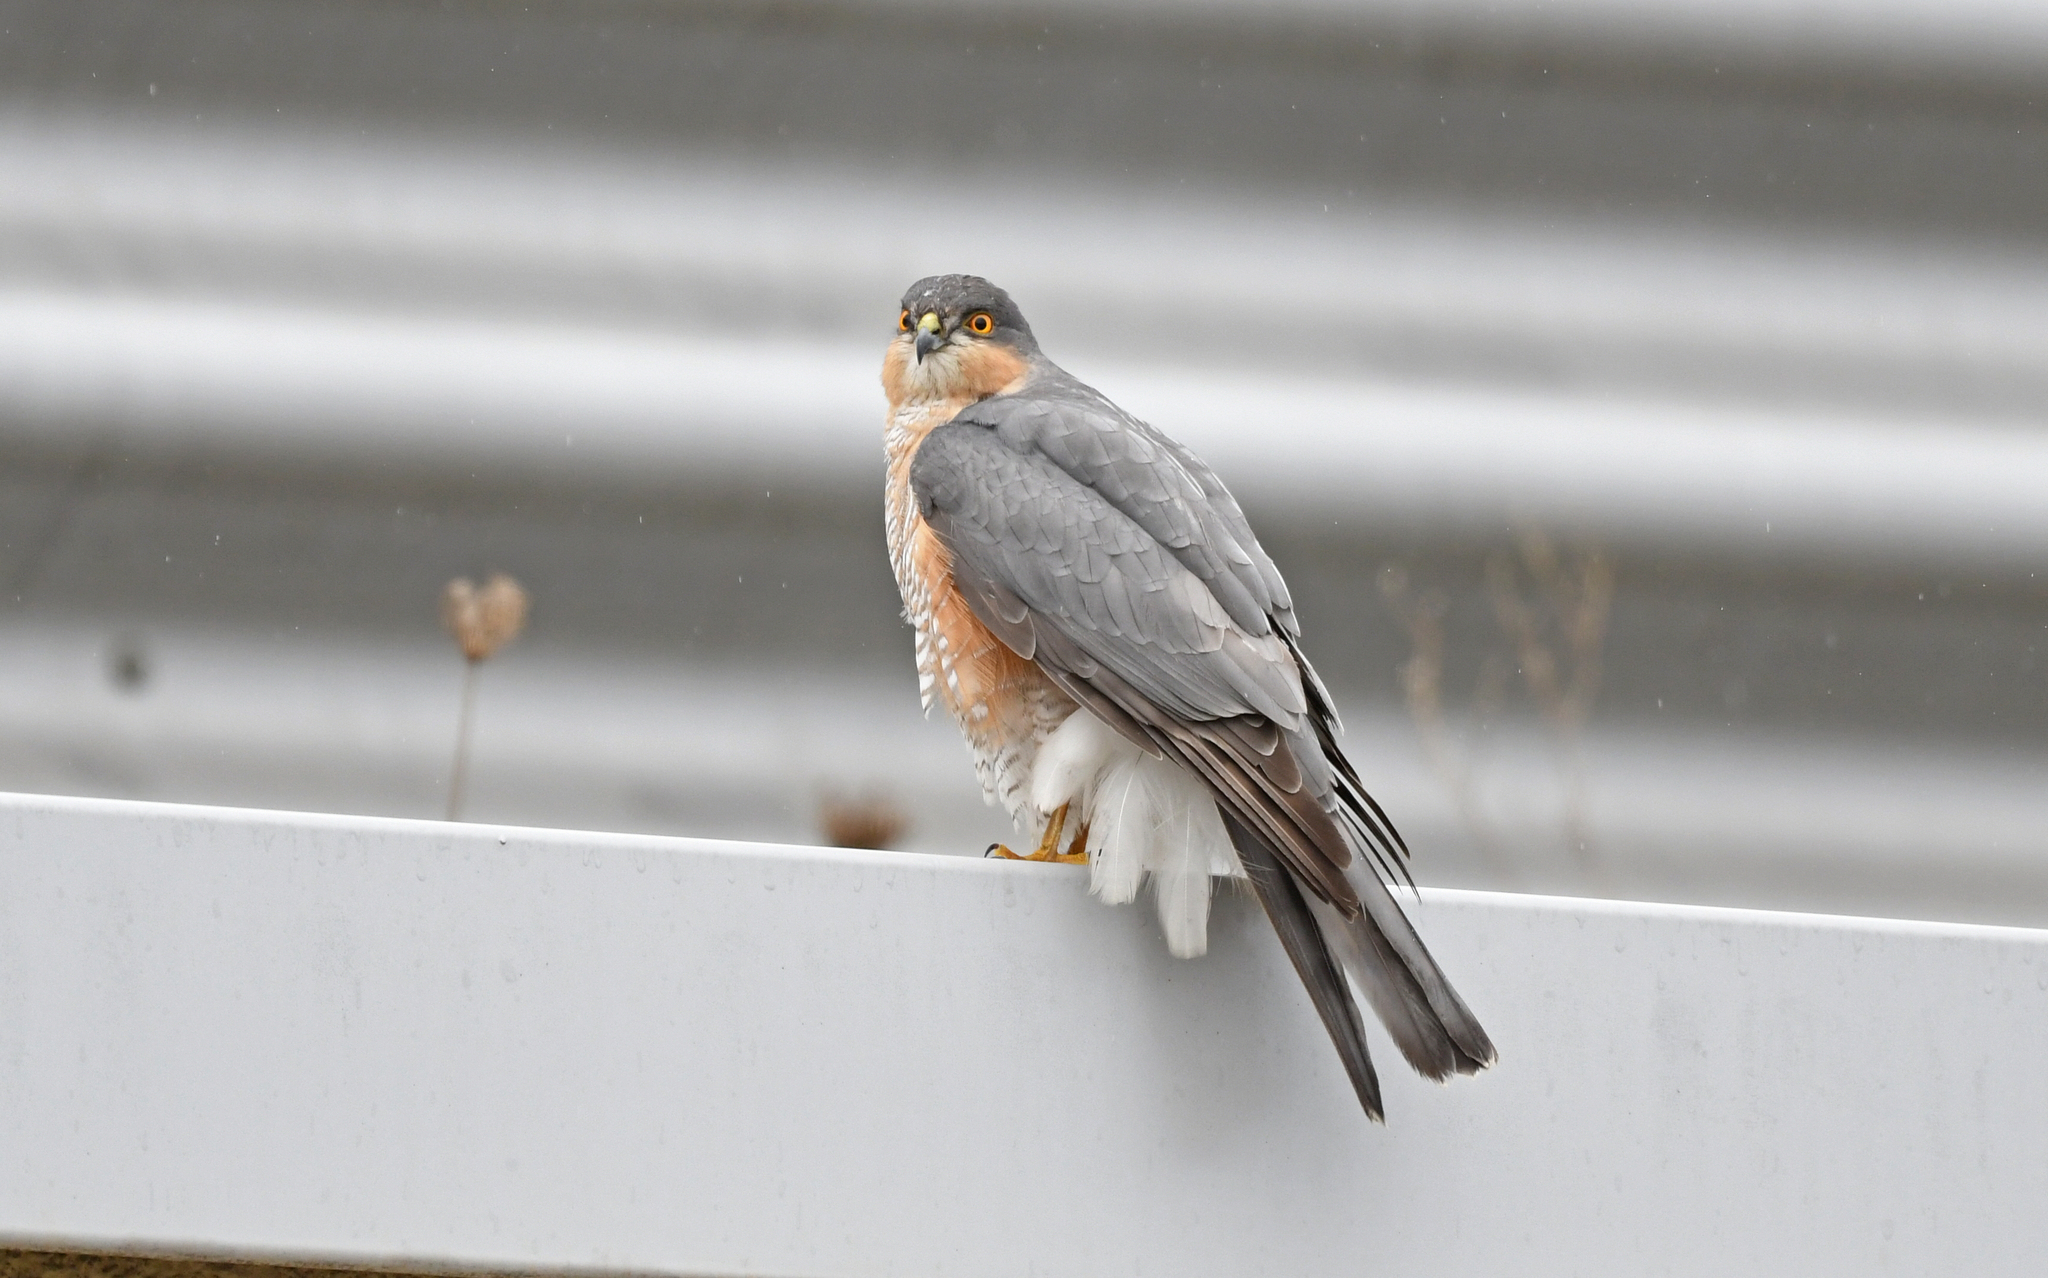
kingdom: Animalia
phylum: Chordata
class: Aves
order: Accipitriformes
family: Accipitridae
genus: Accipiter
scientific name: Accipiter nisus
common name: Eurasian sparrowhawk
